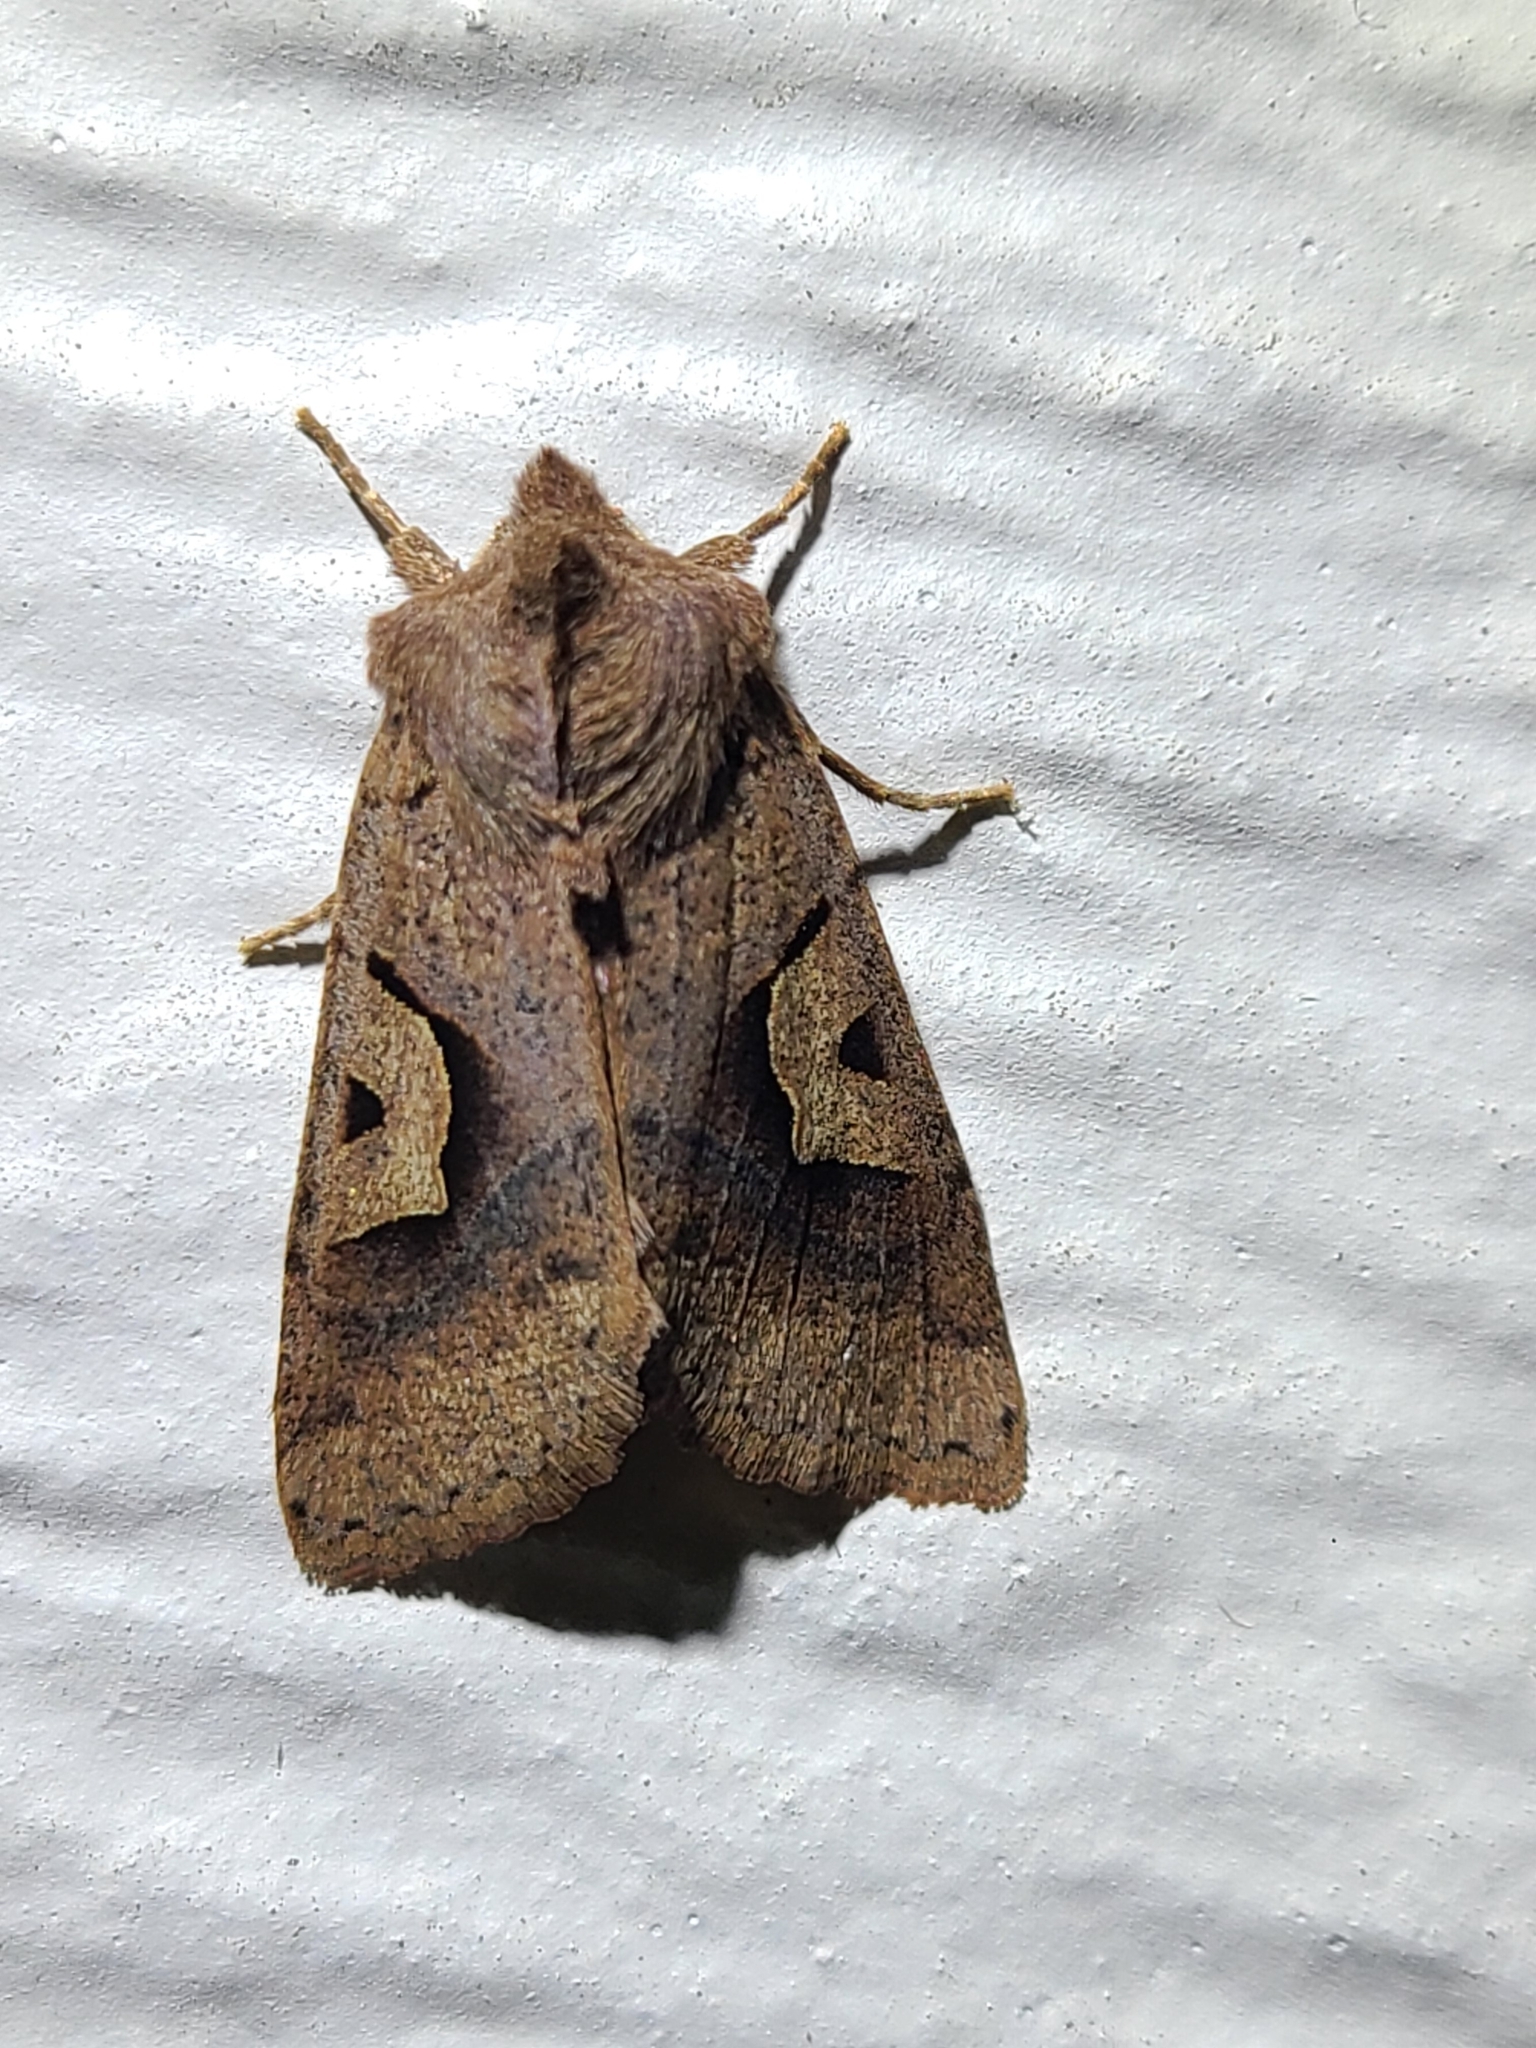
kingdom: Animalia
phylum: Arthropoda
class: Insecta
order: Lepidoptera
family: Noctuidae
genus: Acerra
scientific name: Acerra normalis
